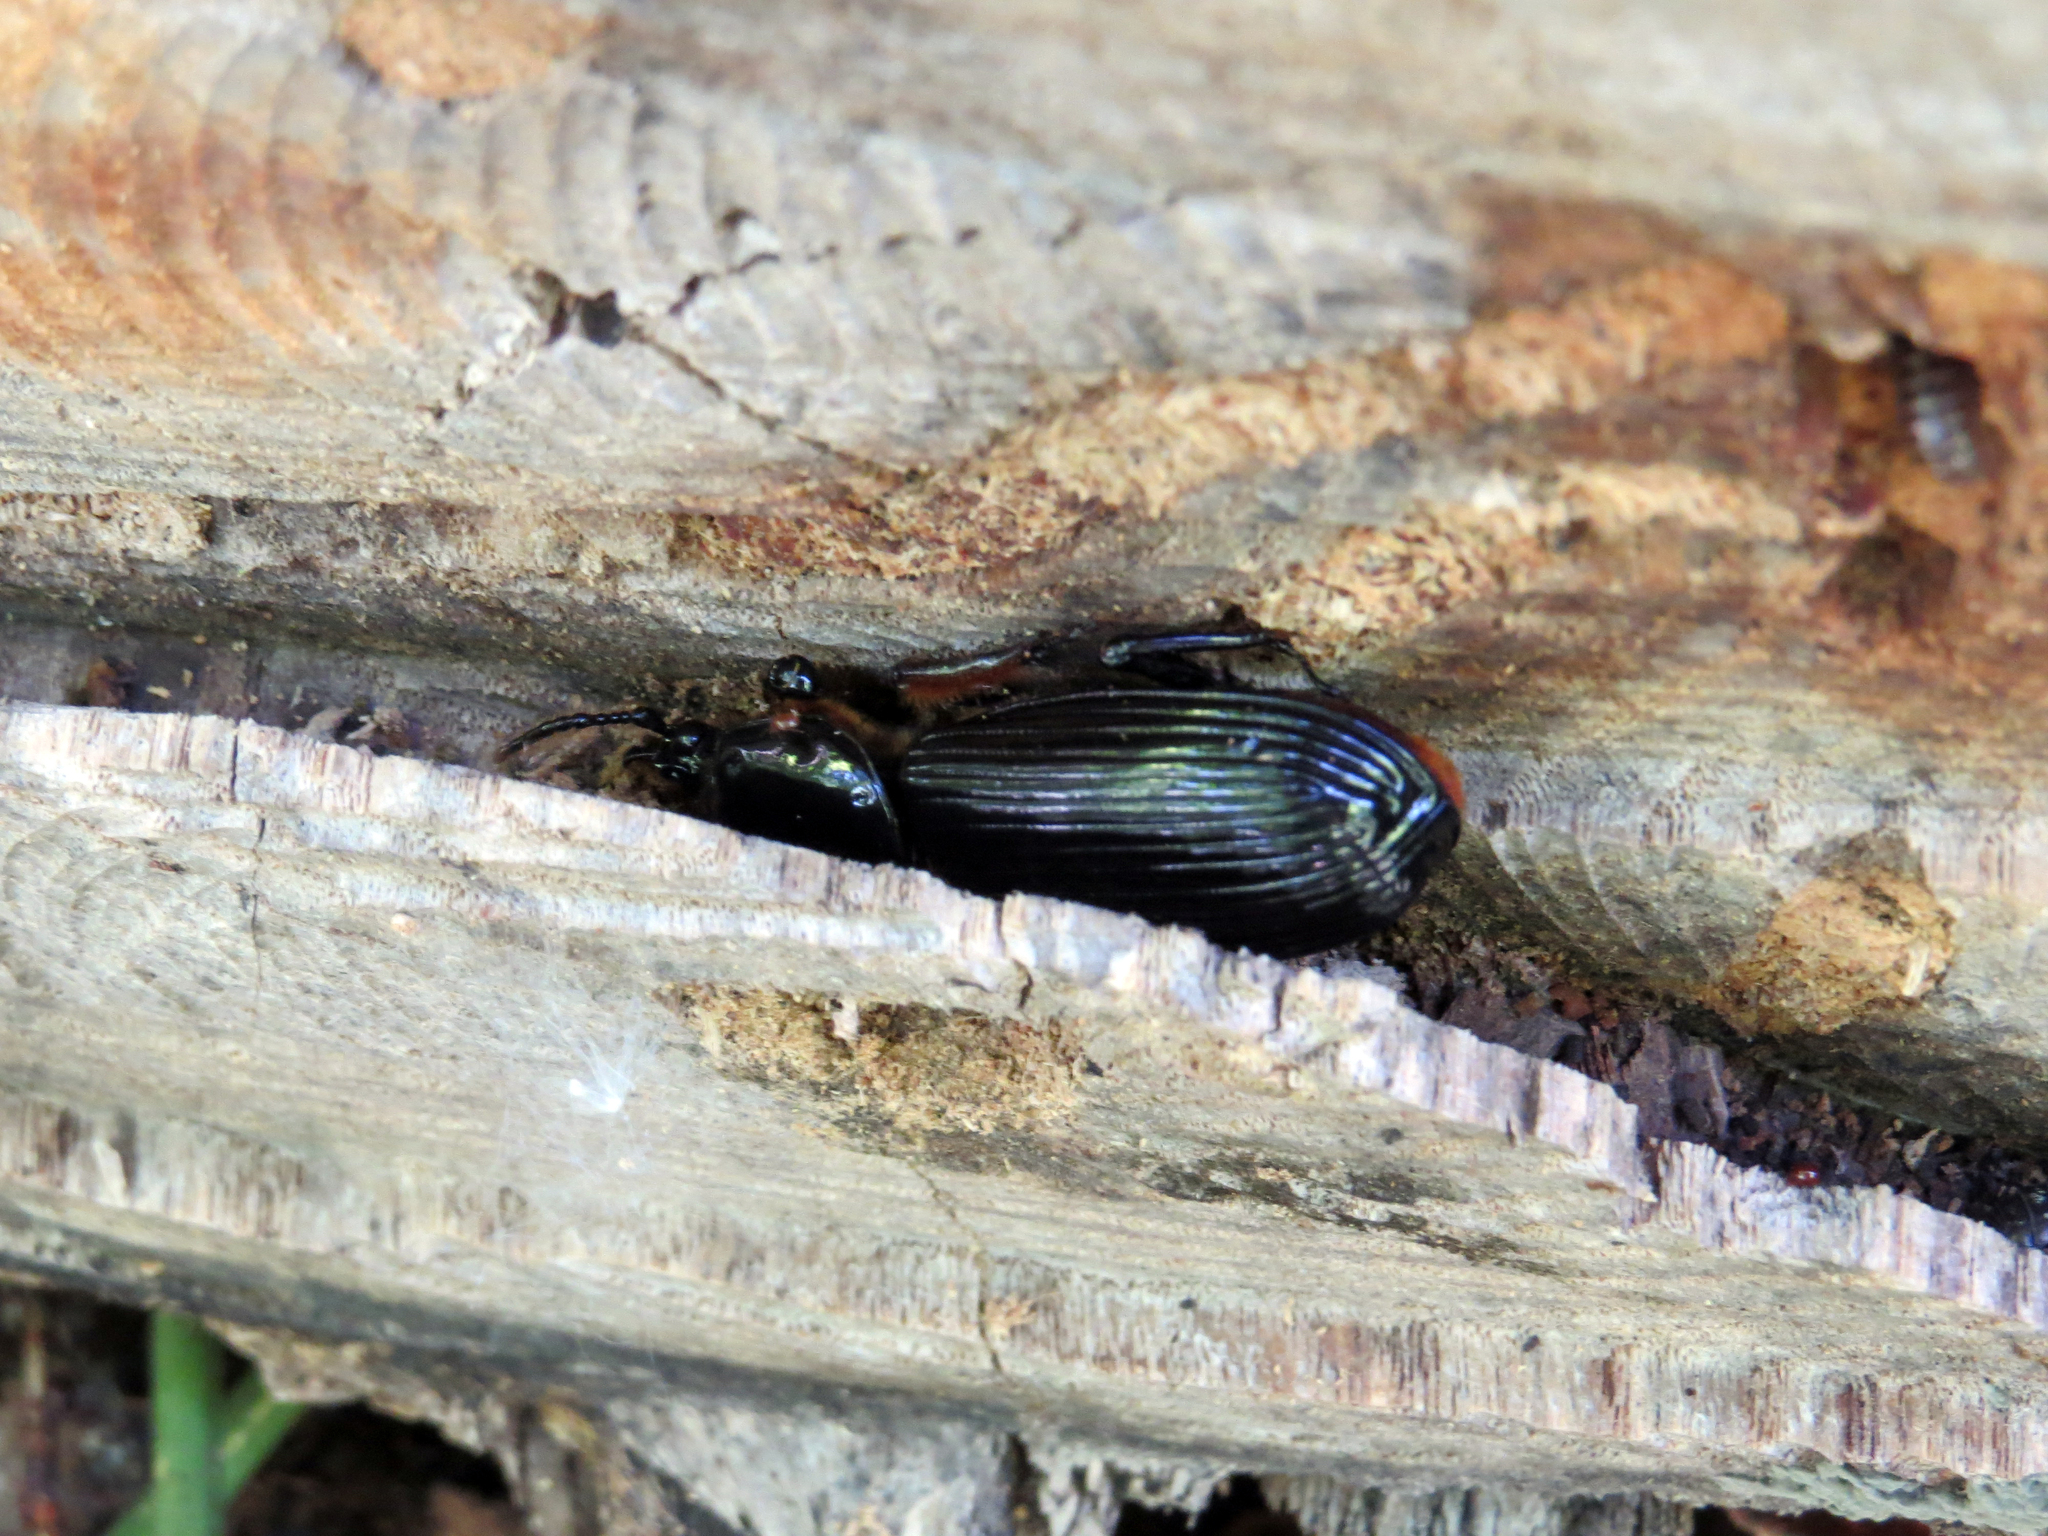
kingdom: Animalia
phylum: Arthropoda
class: Insecta
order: Coleoptera
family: Passalidae
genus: Odontotaenius
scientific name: Odontotaenius disjunctus
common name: Patent leather beetle
